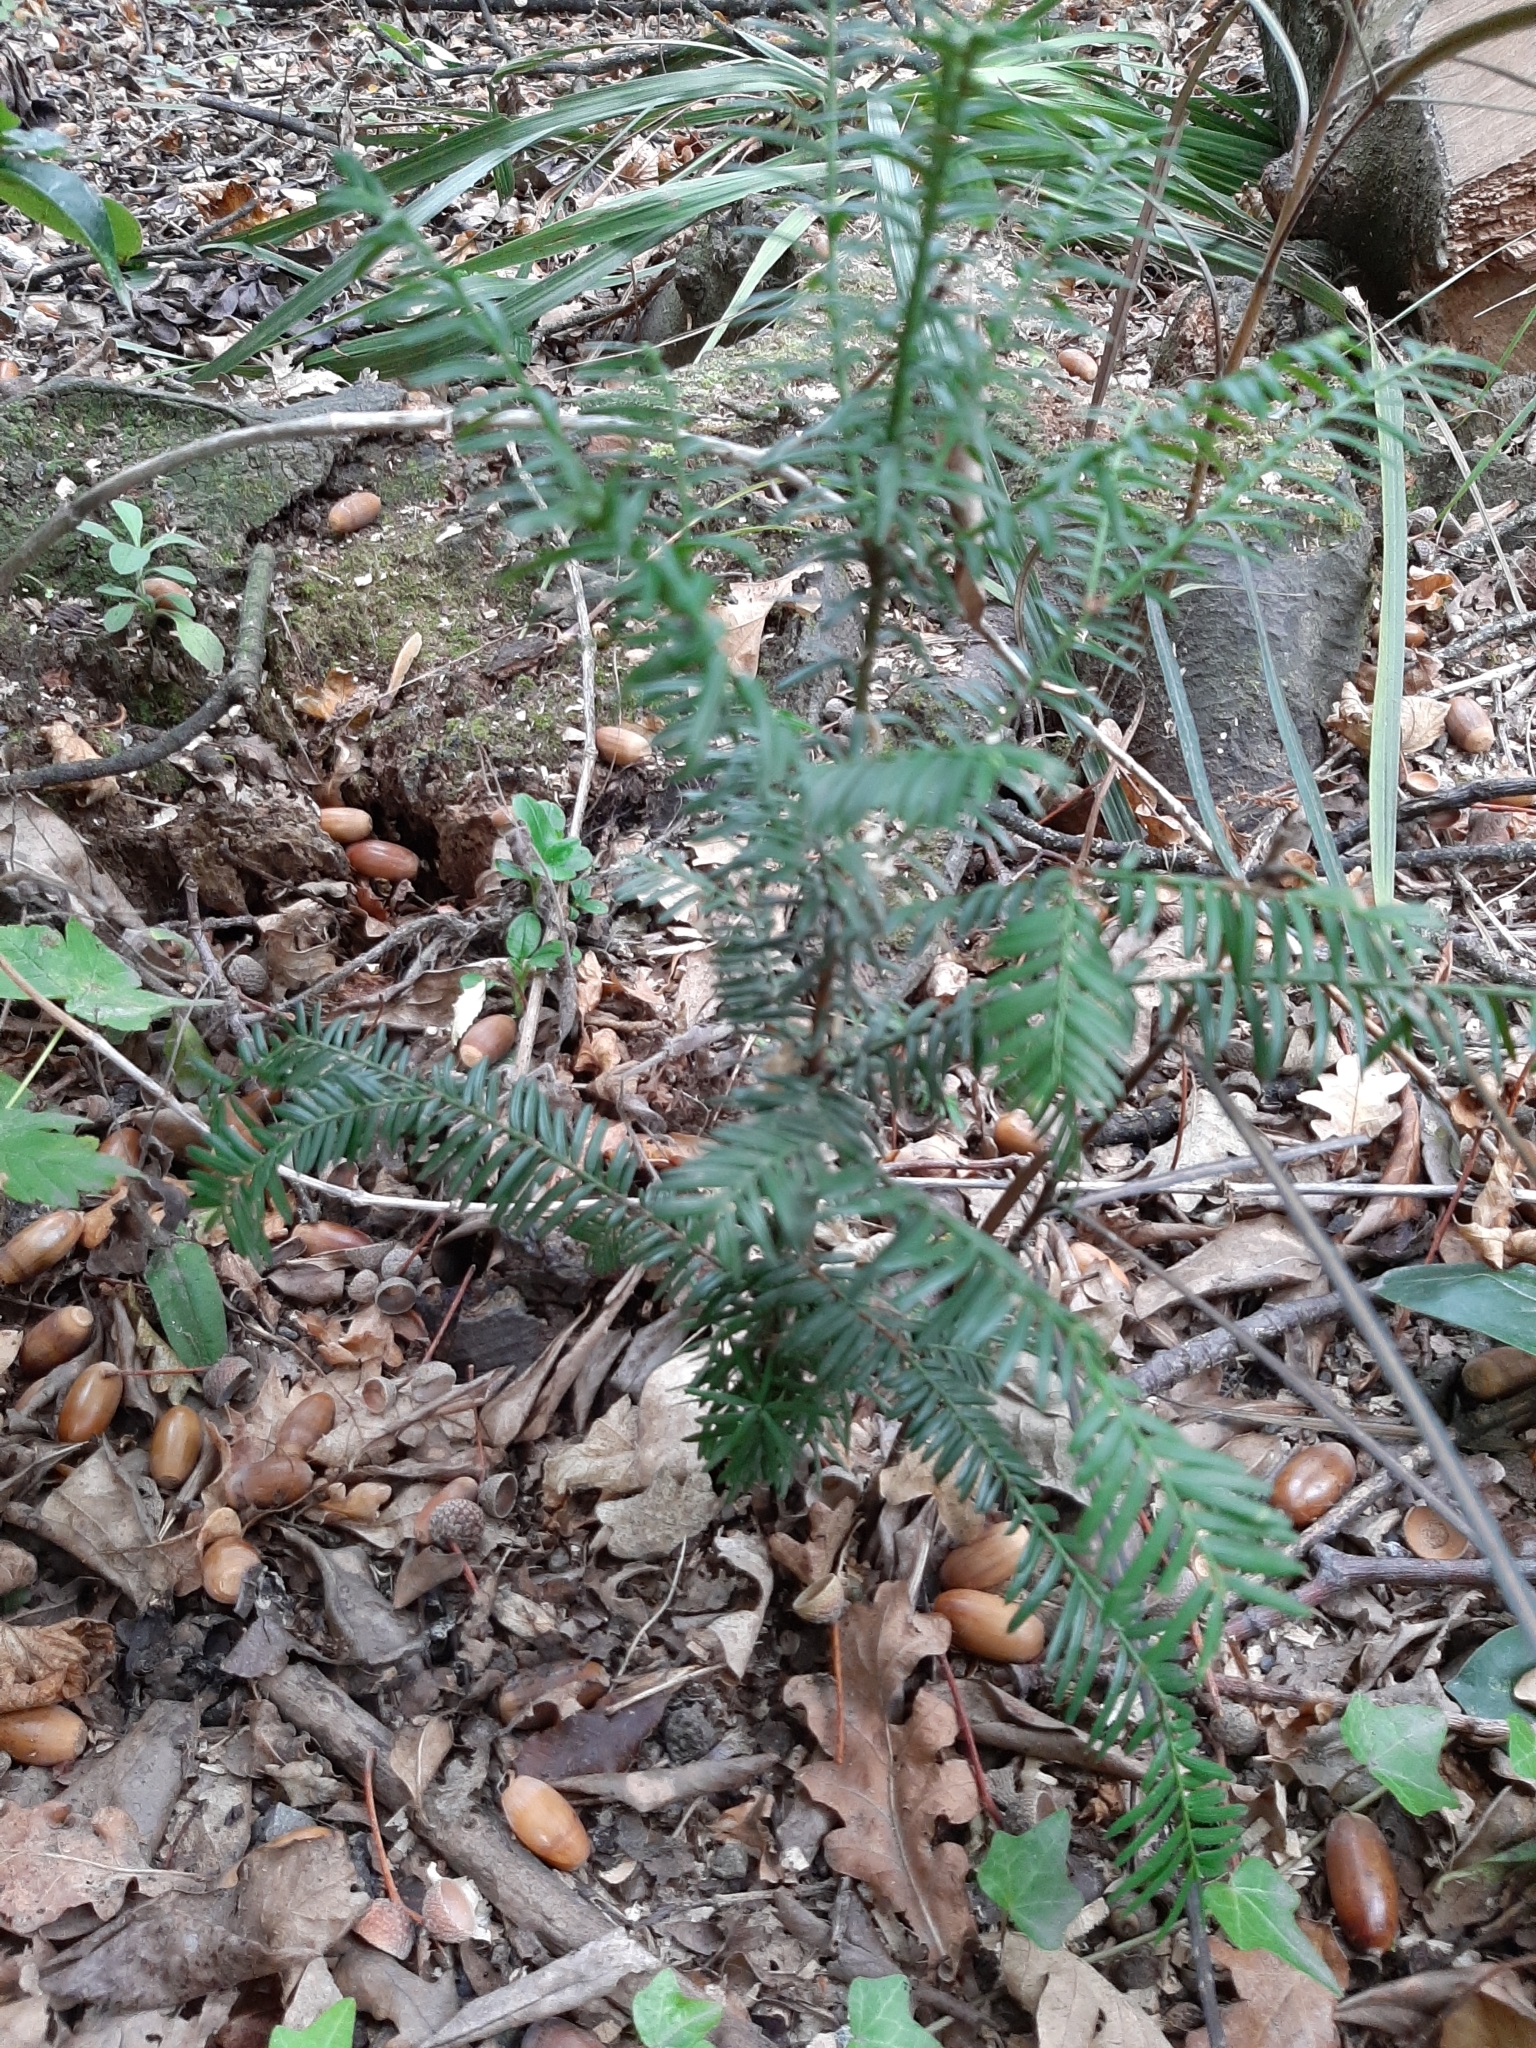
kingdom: Plantae
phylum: Tracheophyta
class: Pinopsida
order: Pinales
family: Taxaceae
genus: Taxus
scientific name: Taxus baccata
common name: Yew
